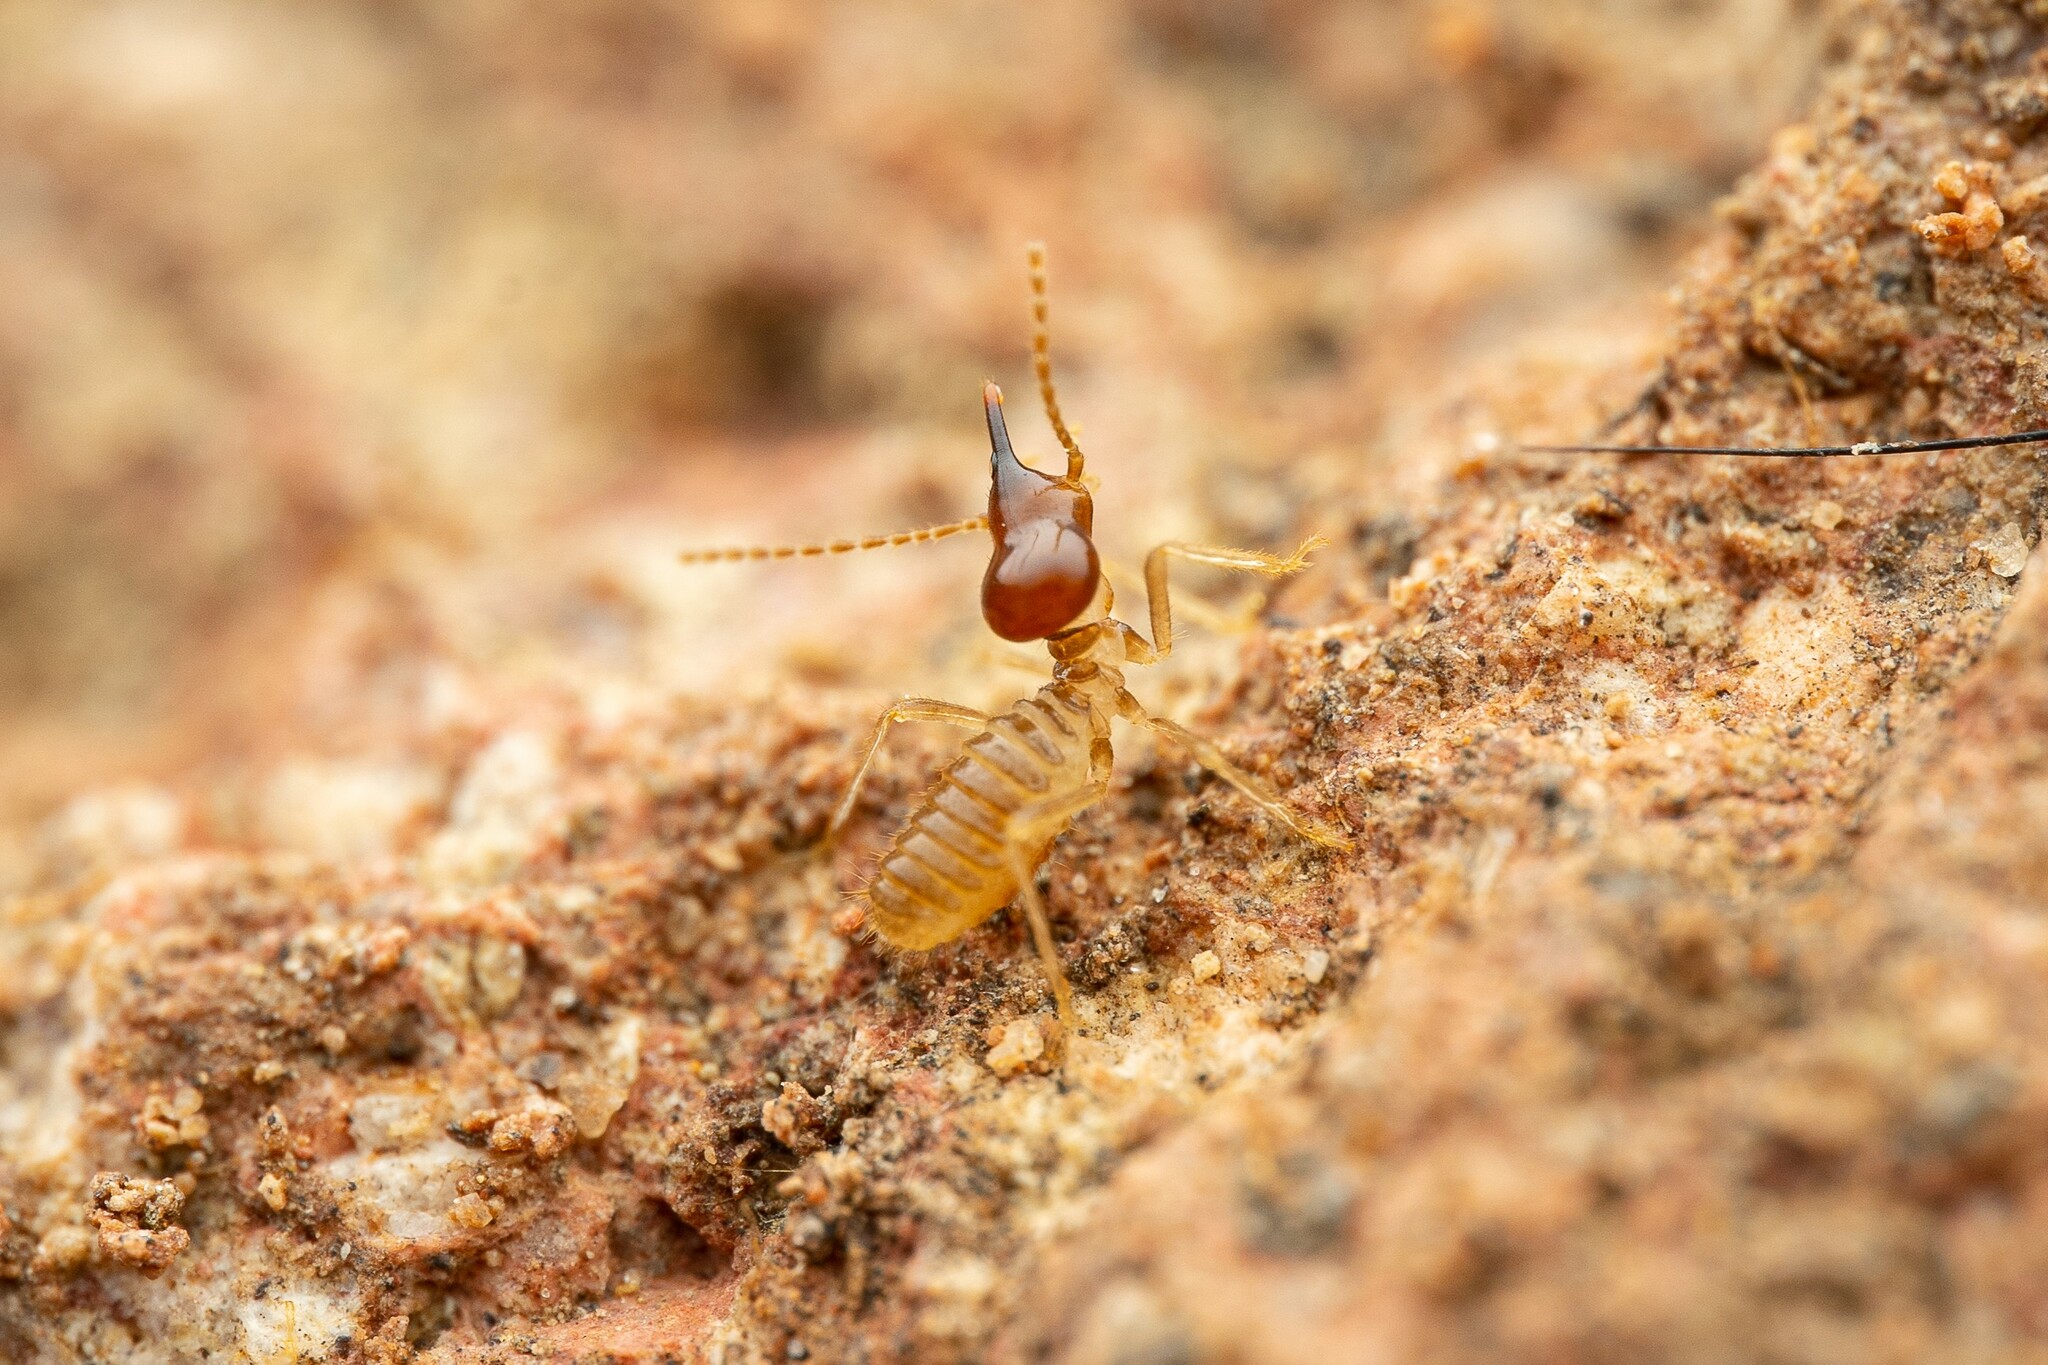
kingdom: Animalia
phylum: Arthropoda
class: Insecta
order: Blattodea
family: Termitidae
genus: Tenuirostritermes
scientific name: Tenuirostritermes tenuirostris
